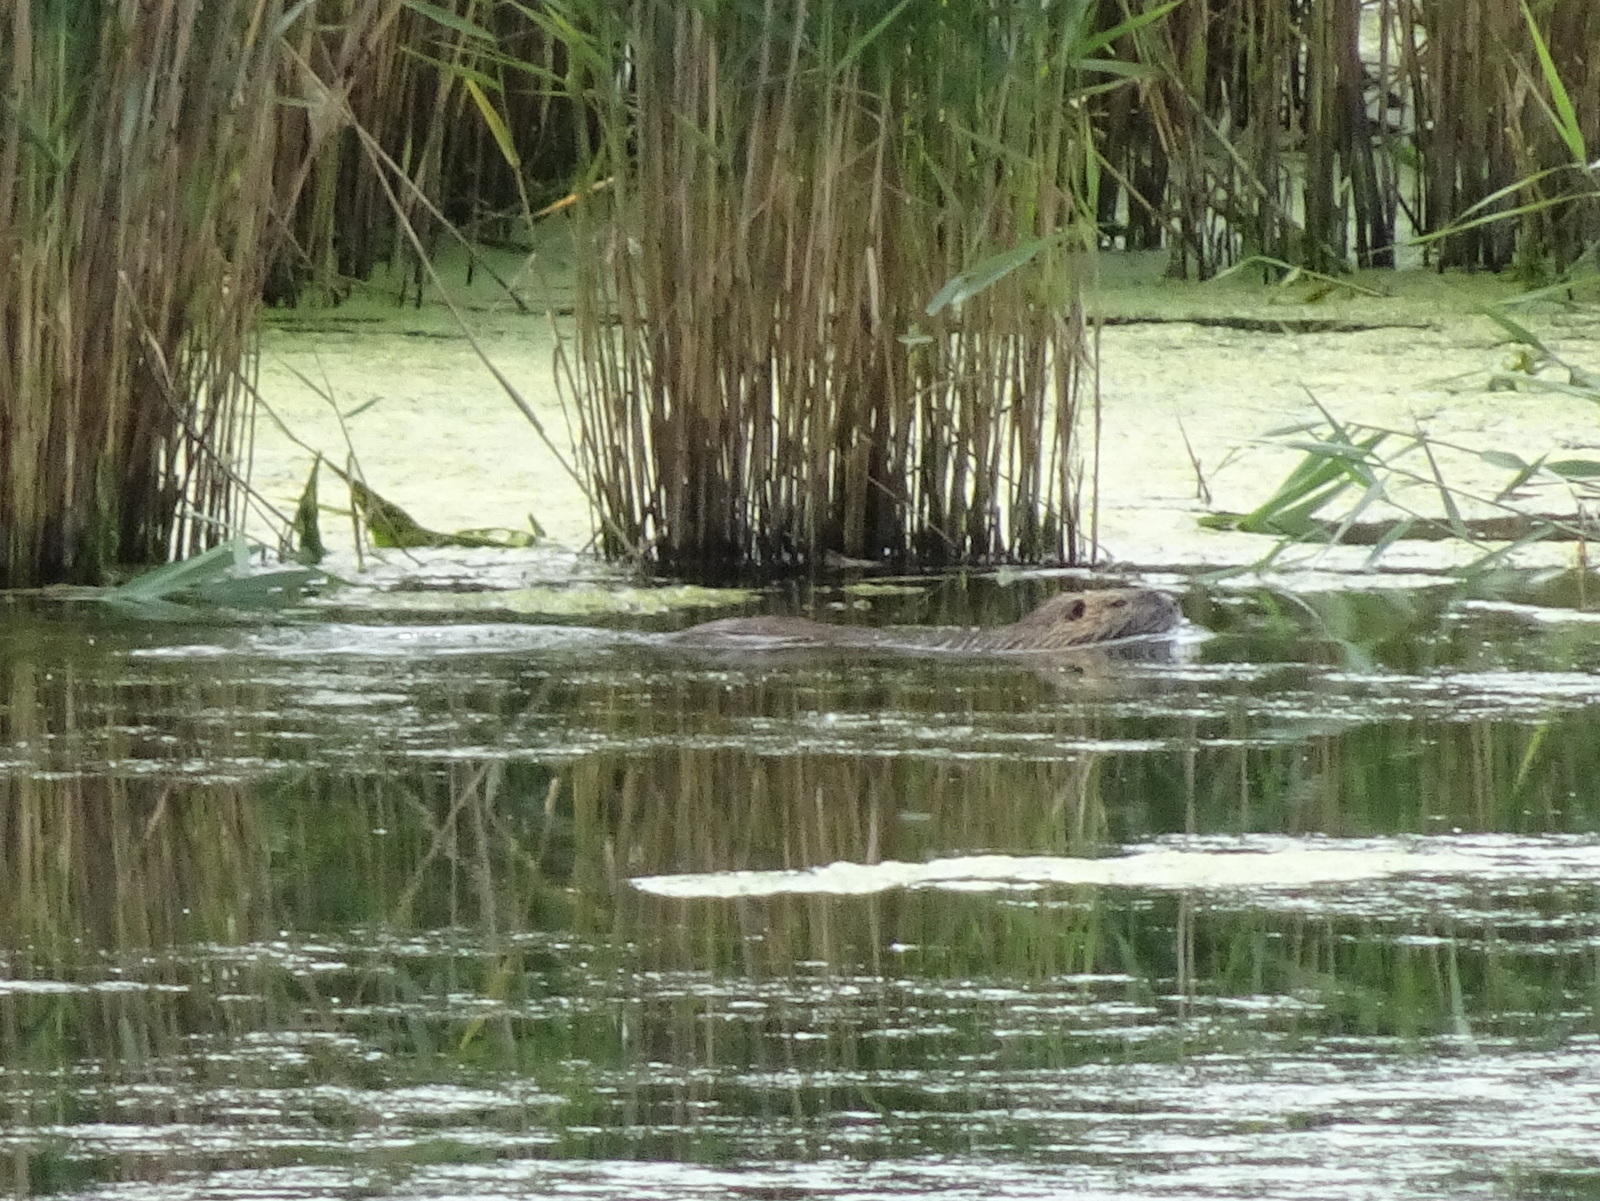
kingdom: Animalia
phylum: Chordata
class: Mammalia
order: Rodentia
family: Myocastoridae
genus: Myocastor
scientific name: Myocastor coypus
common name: Coypu
